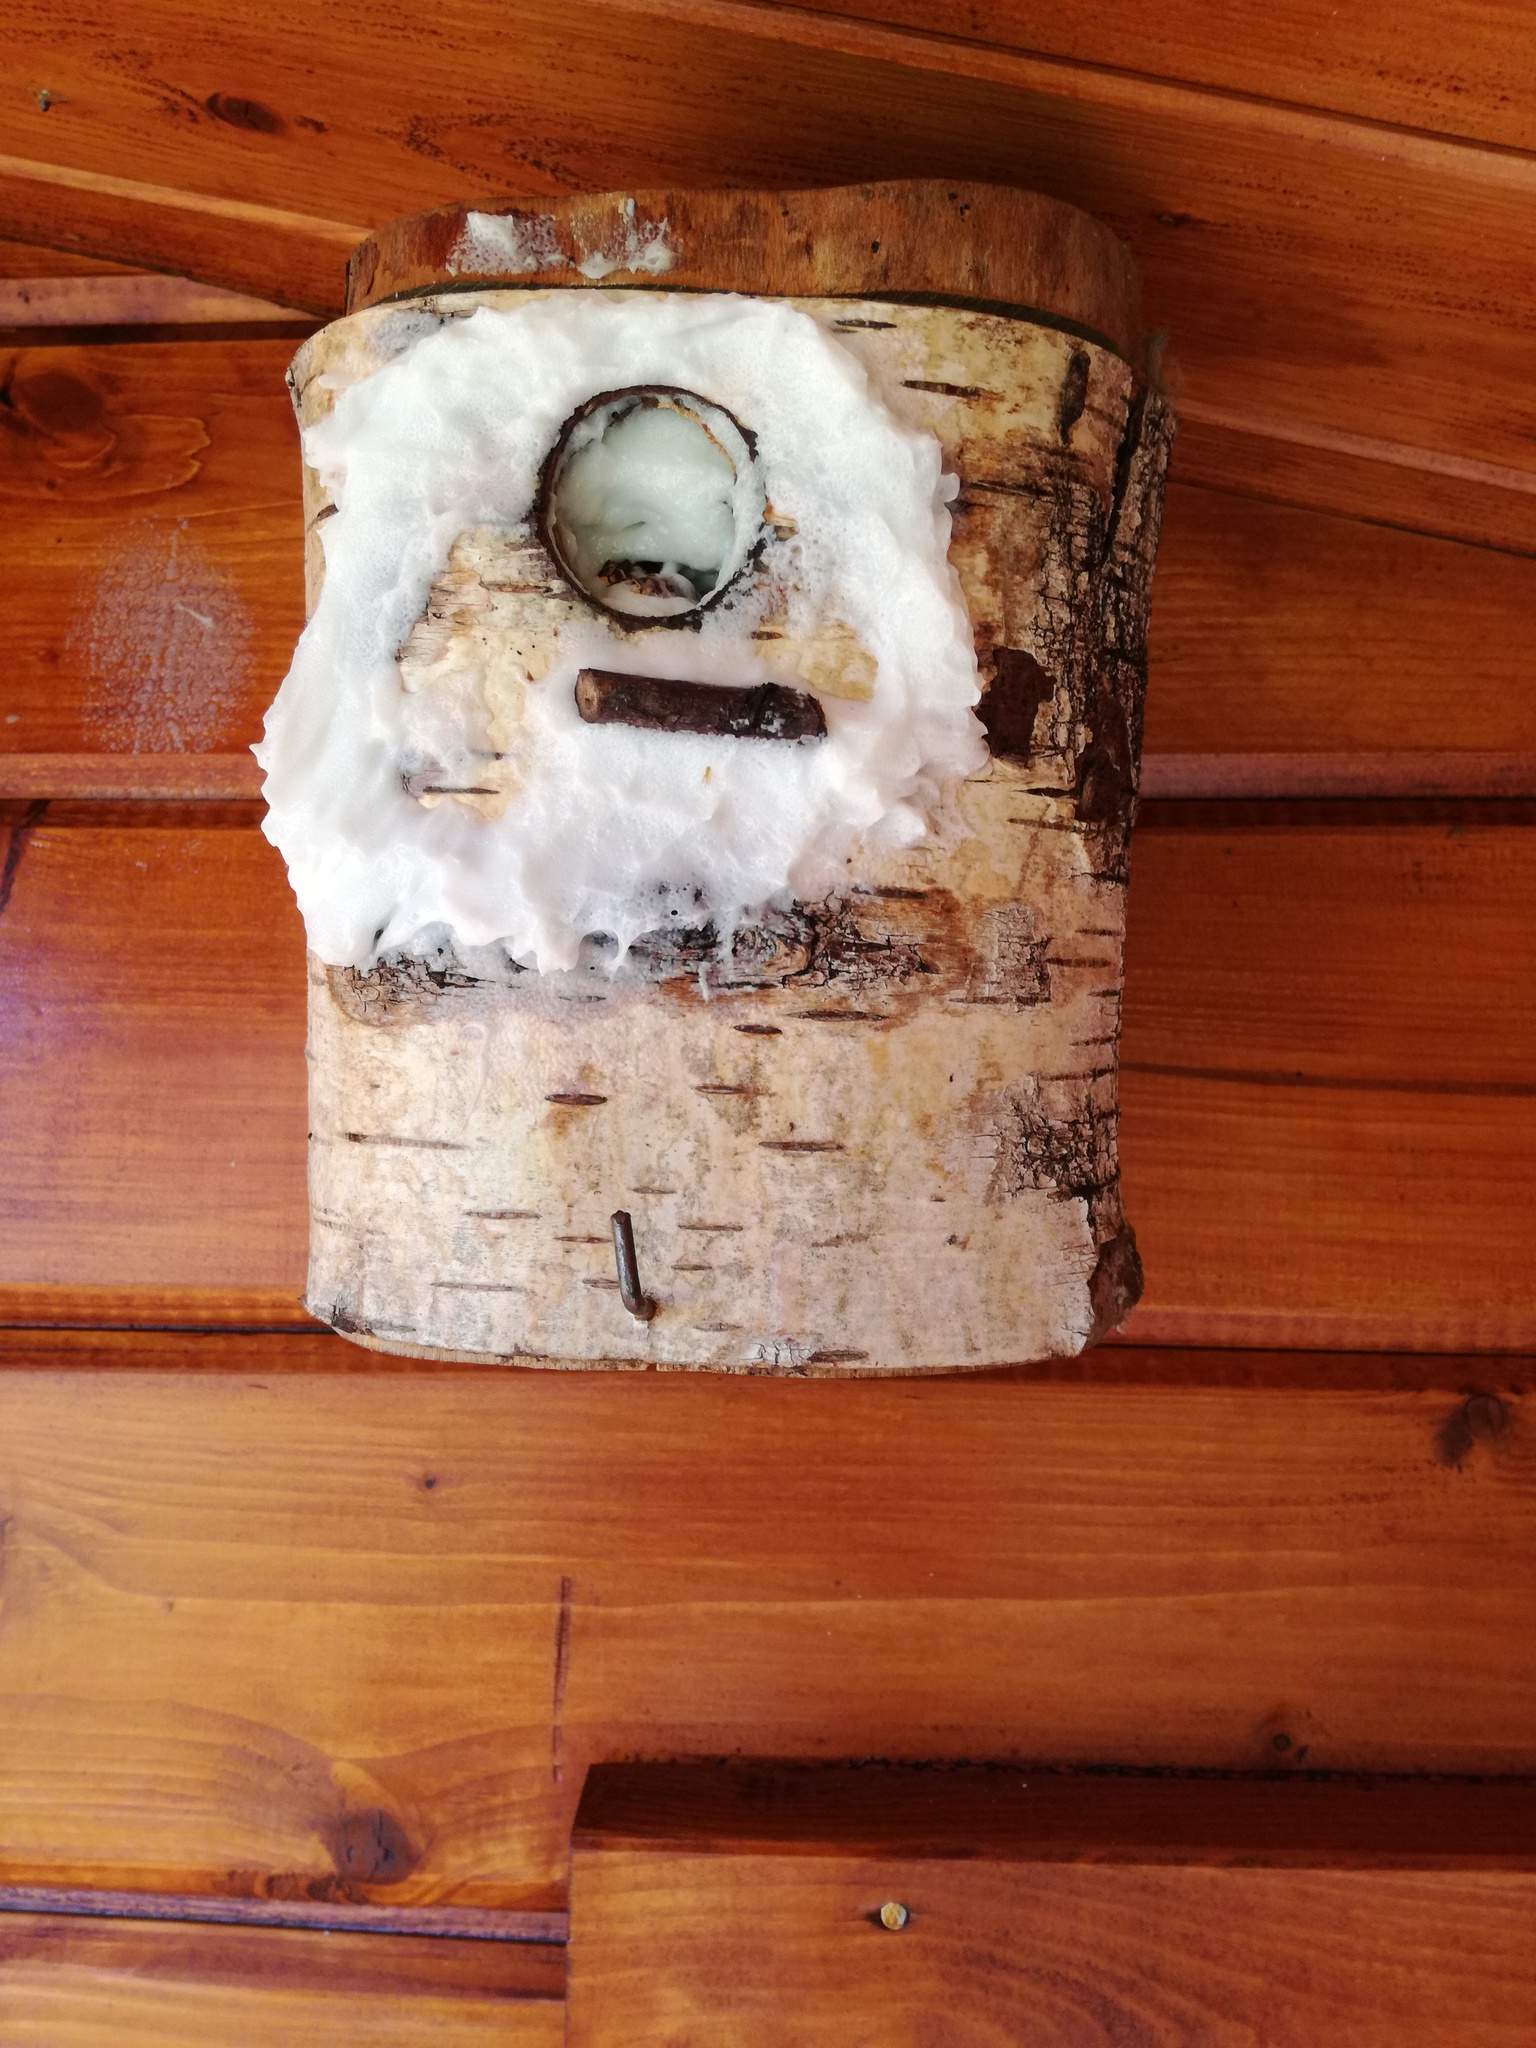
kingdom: Animalia
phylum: Arthropoda
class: Insecta
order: Hymenoptera
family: Vespidae
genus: Vespa
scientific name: Vespa crabro
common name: Hornet
